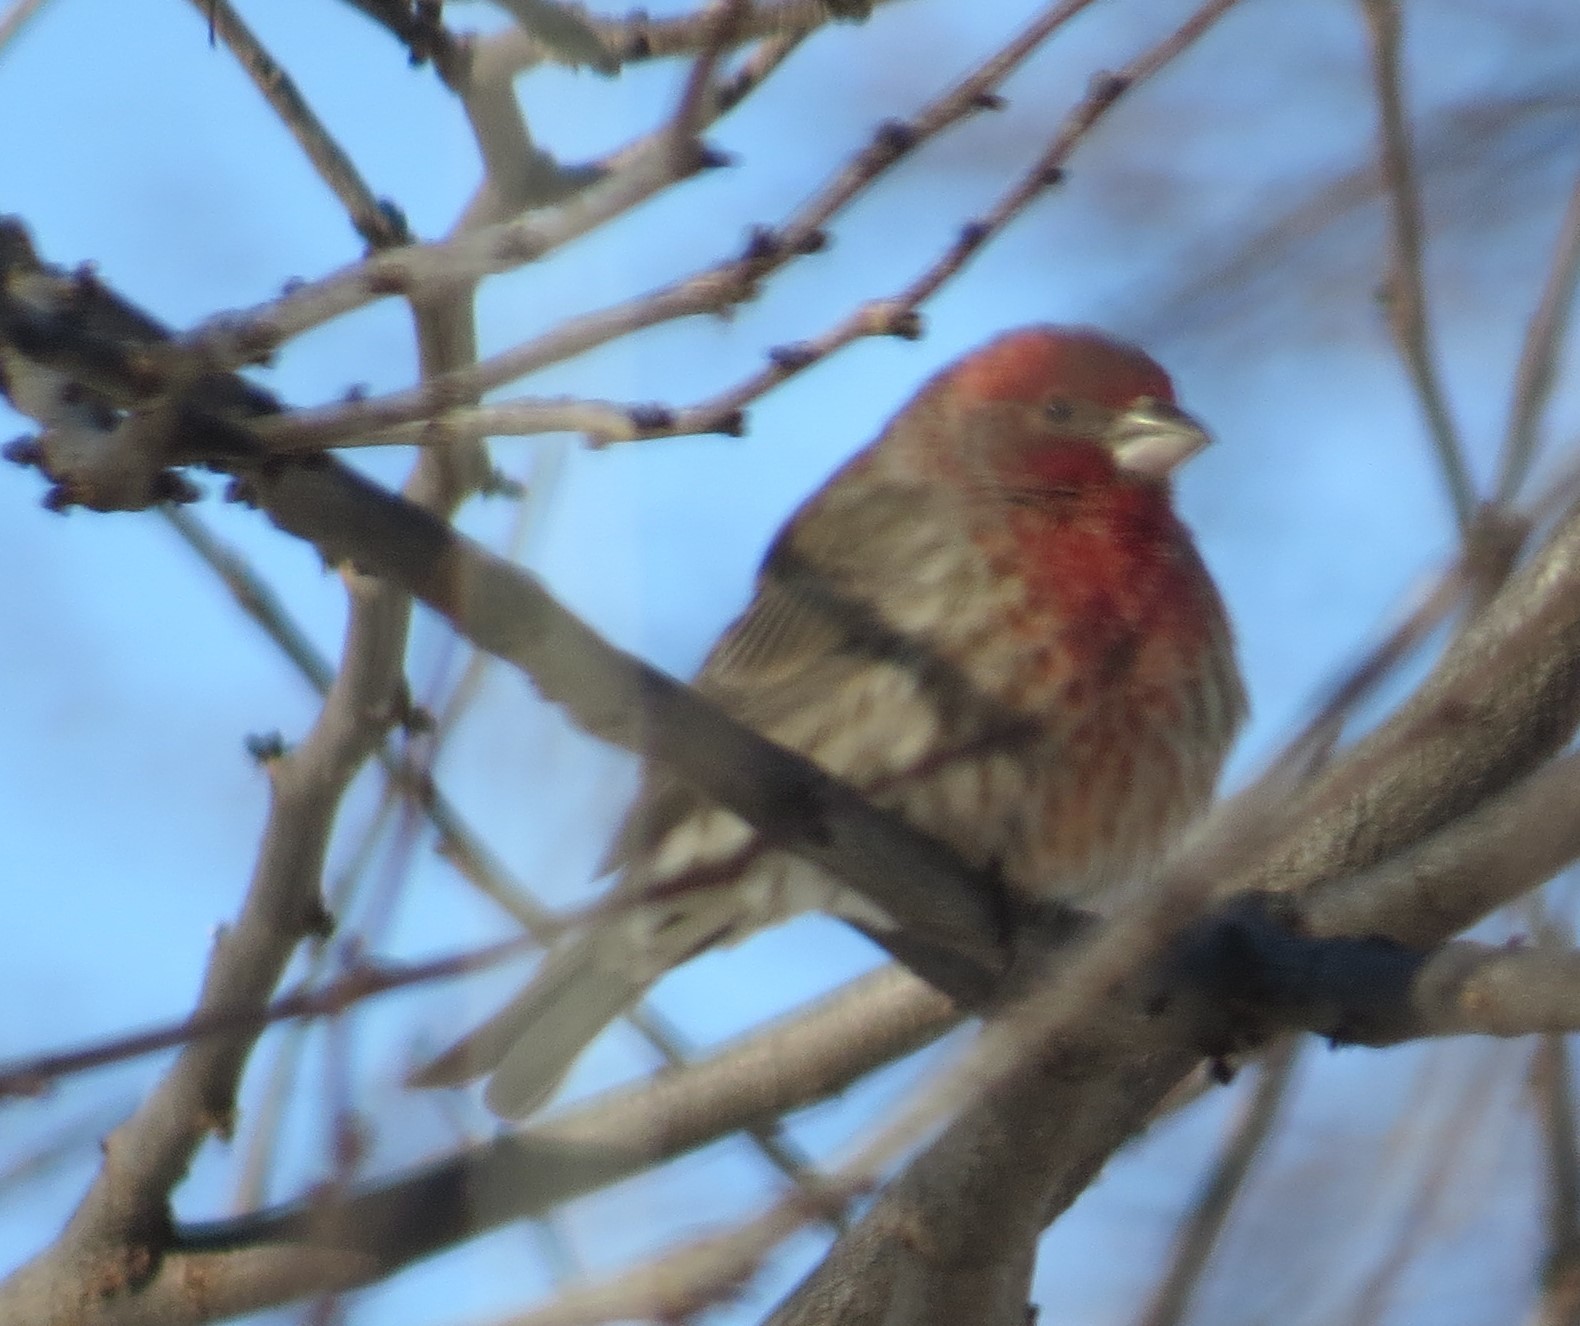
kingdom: Animalia
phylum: Chordata
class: Aves
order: Passeriformes
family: Fringillidae
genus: Haemorhous
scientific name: Haemorhous mexicanus
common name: House finch
